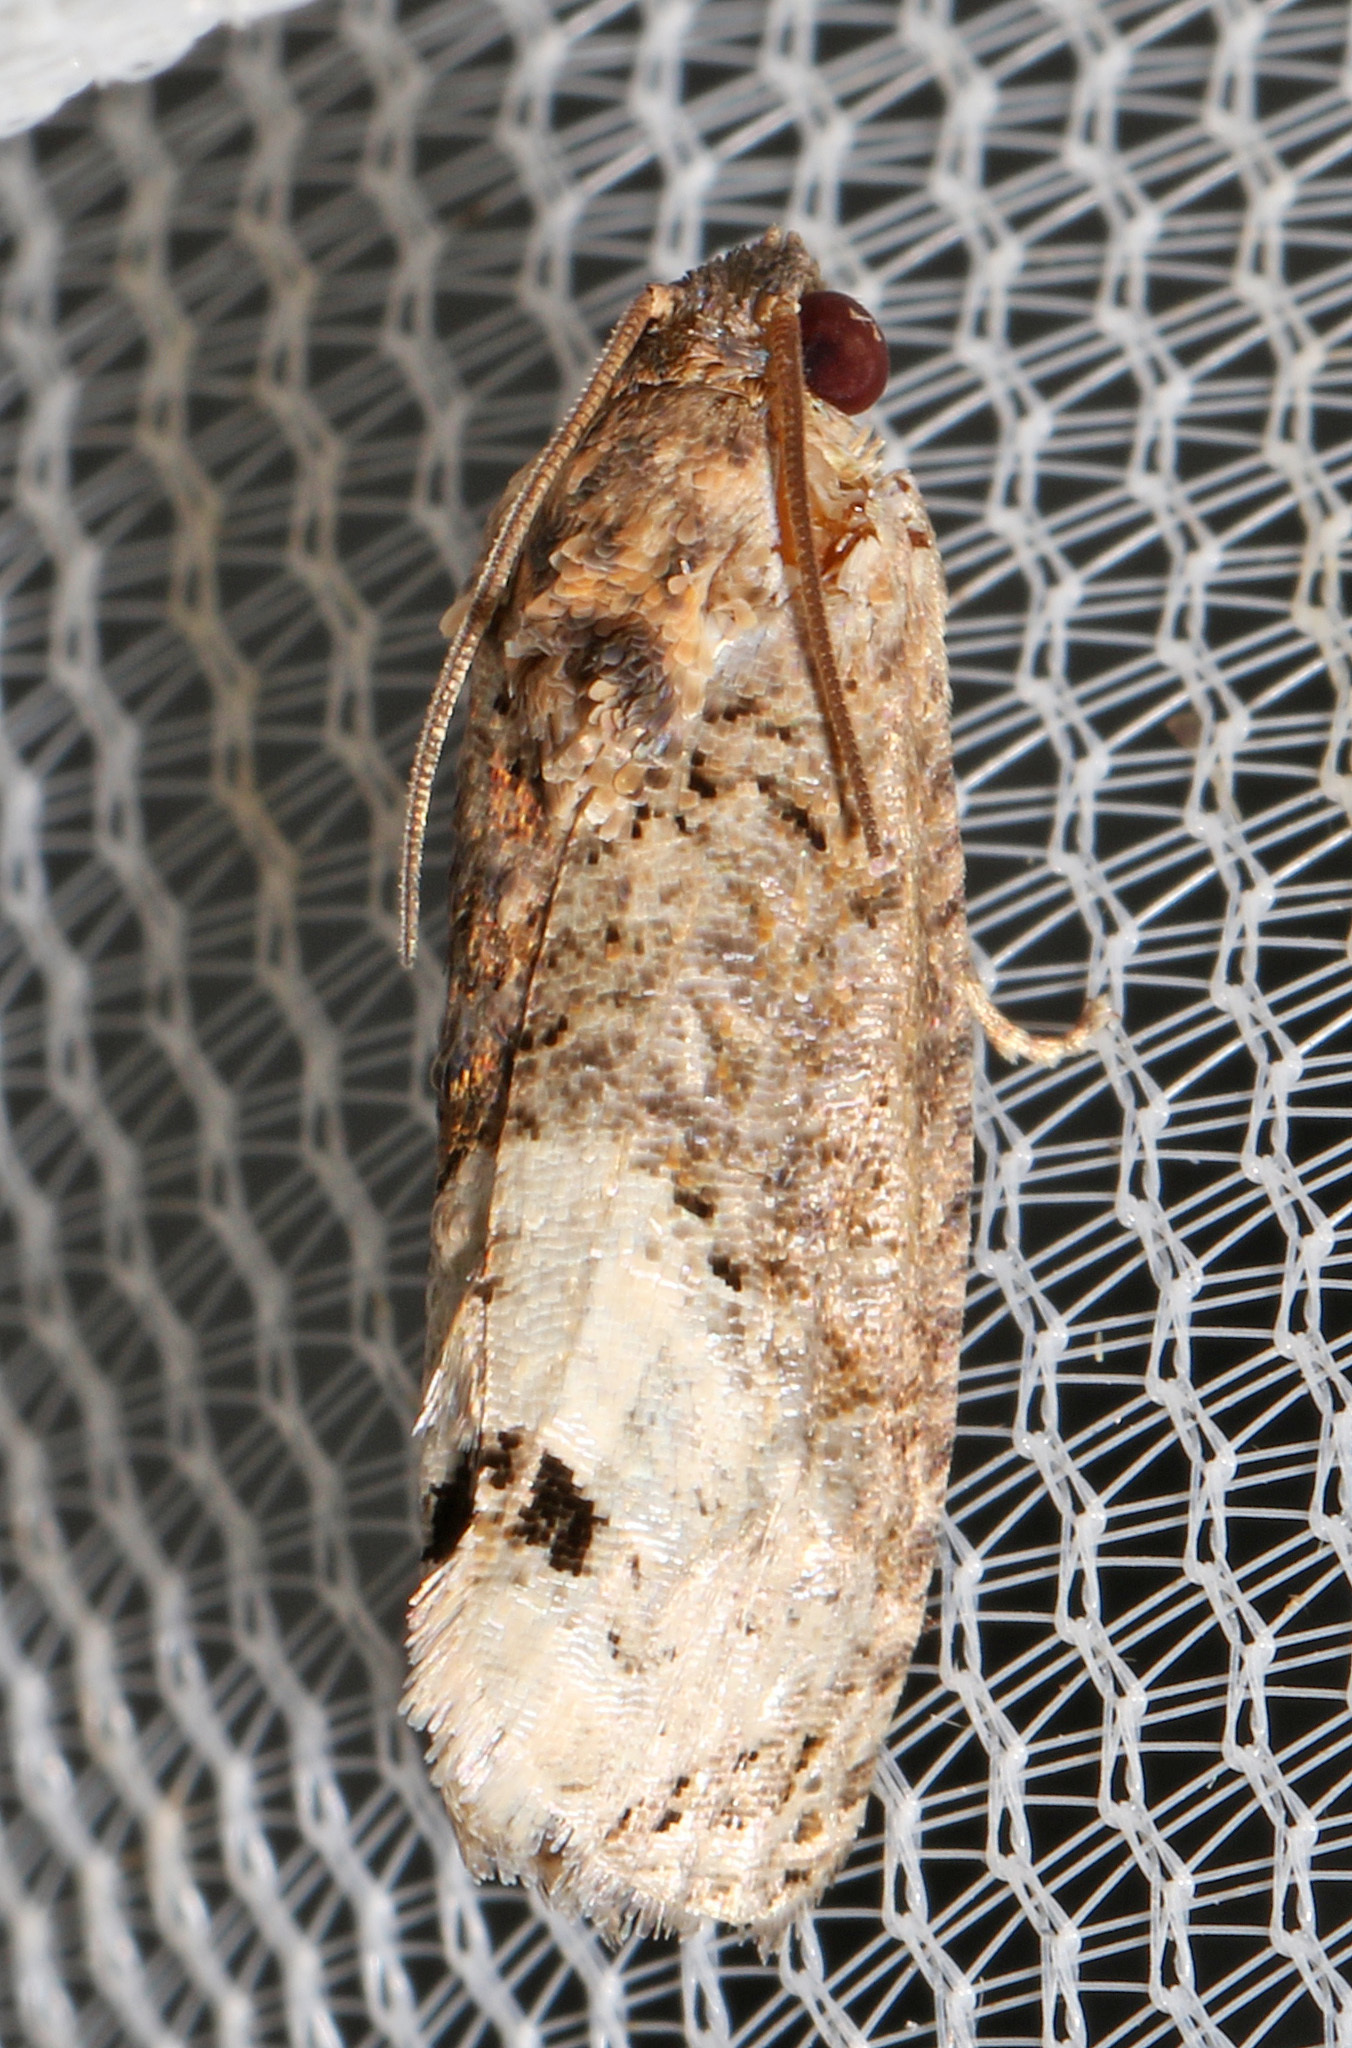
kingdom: Animalia
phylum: Arthropoda
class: Insecta
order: Lepidoptera
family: Tortricidae
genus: Ecdytolopha
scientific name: Ecdytolopha insiticiana
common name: Locust twig borer moth
